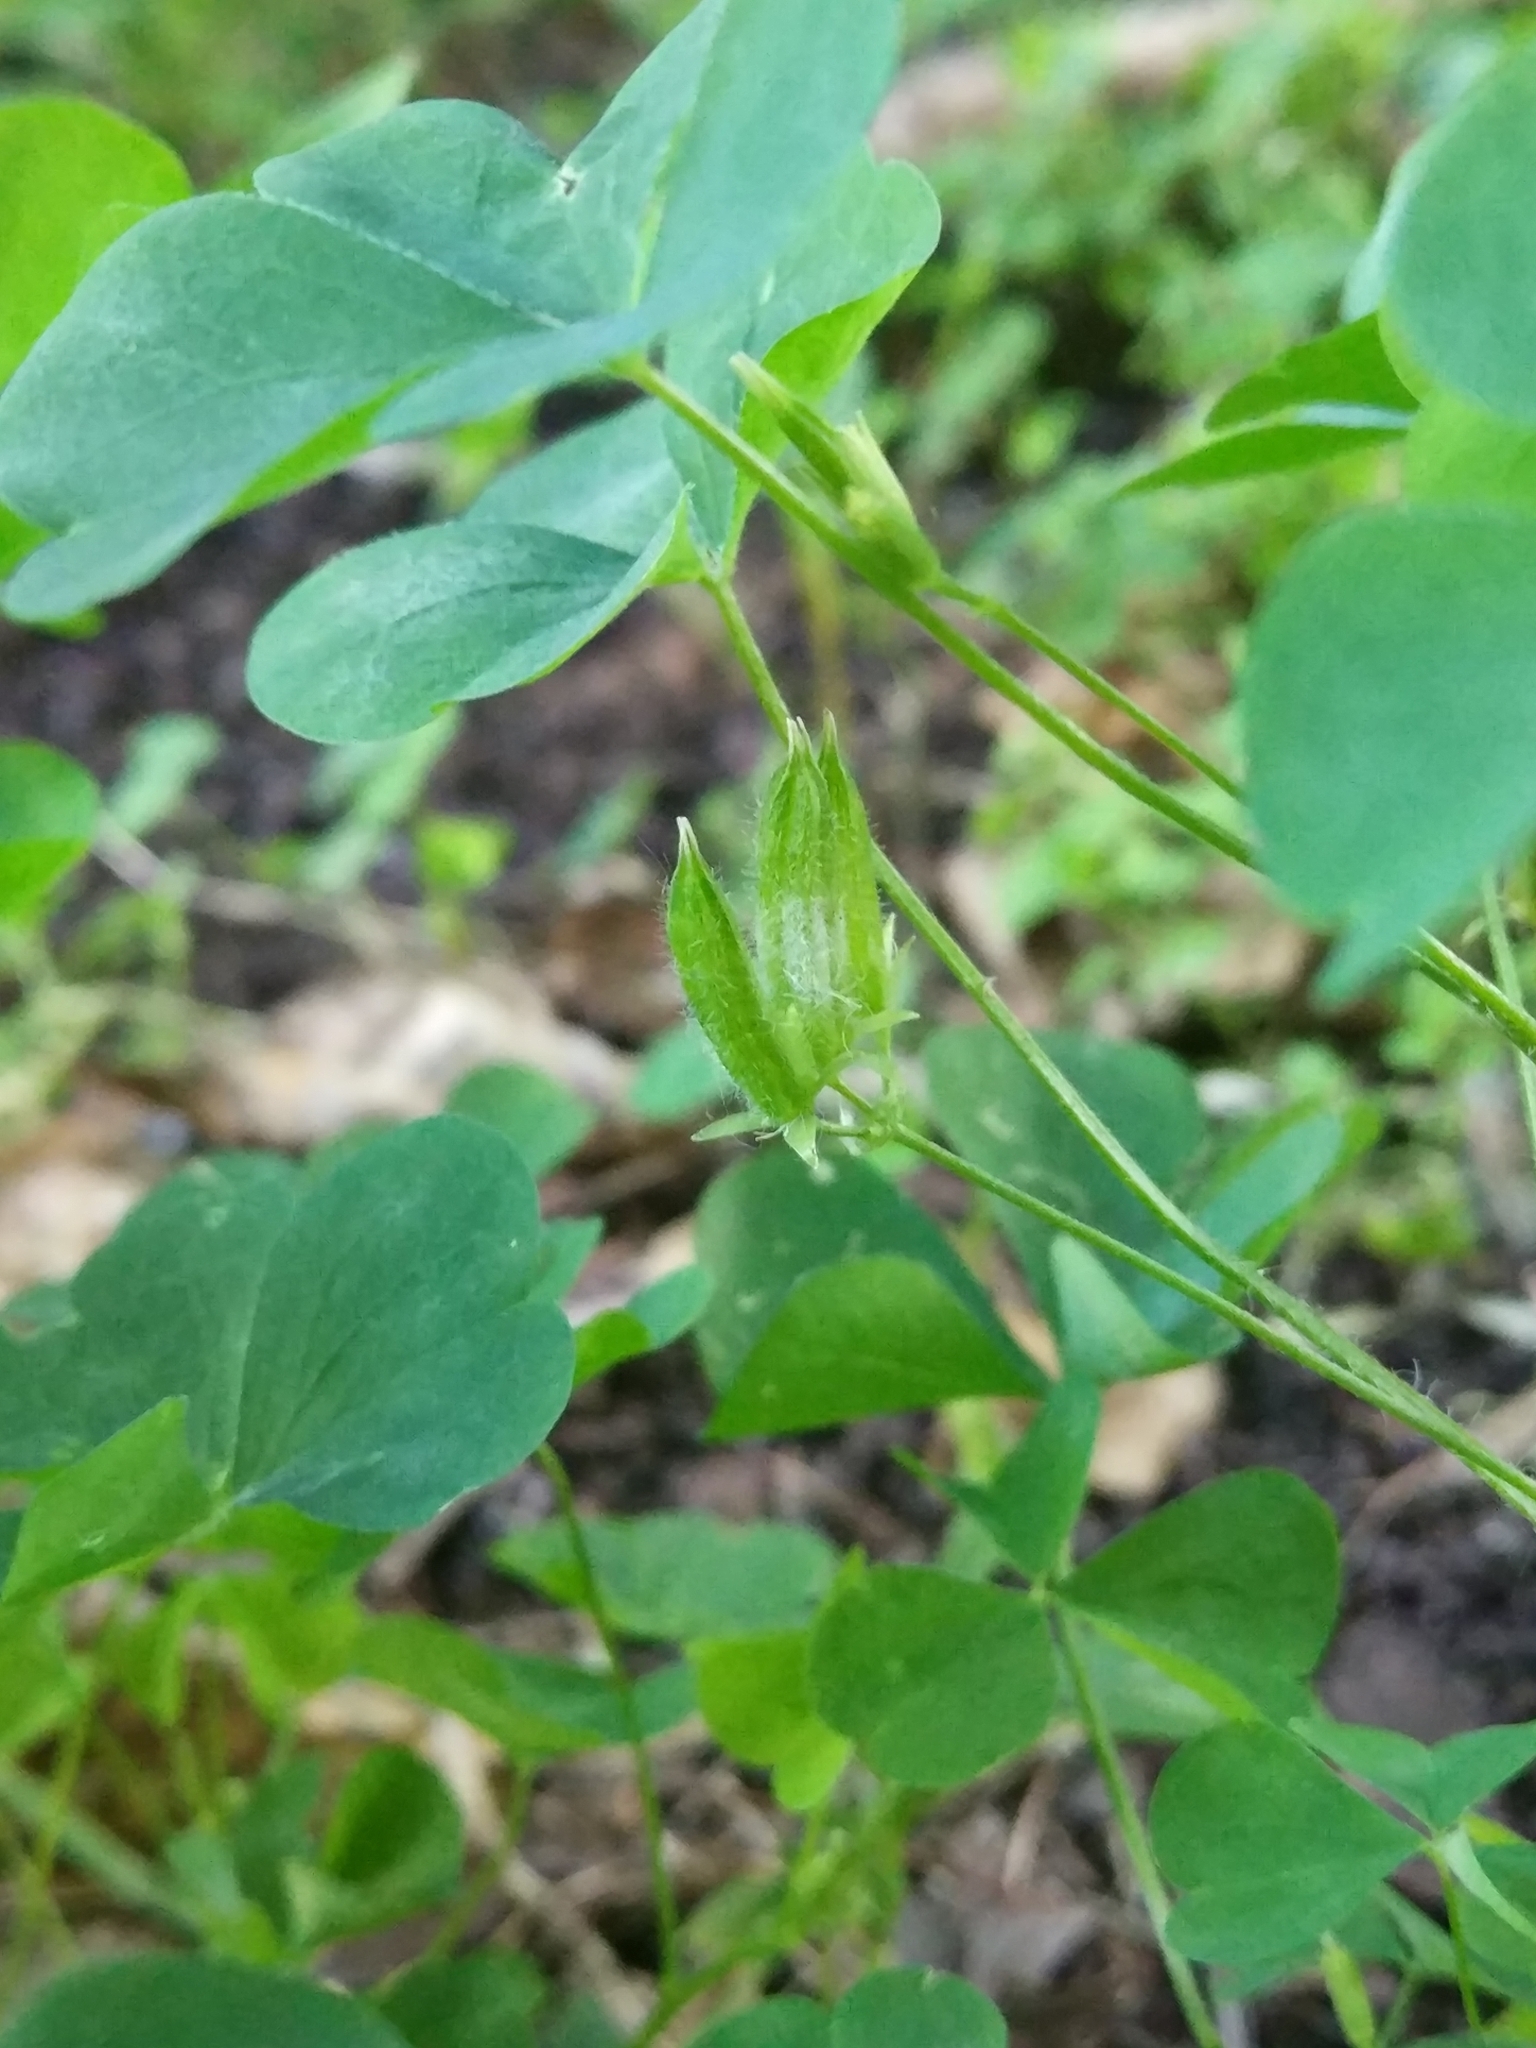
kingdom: Plantae
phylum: Tracheophyta
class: Magnoliopsida
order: Oxalidales
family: Oxalidaceae
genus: Oxalis
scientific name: Oxalis stricta
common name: Upright yellow-sorrel
